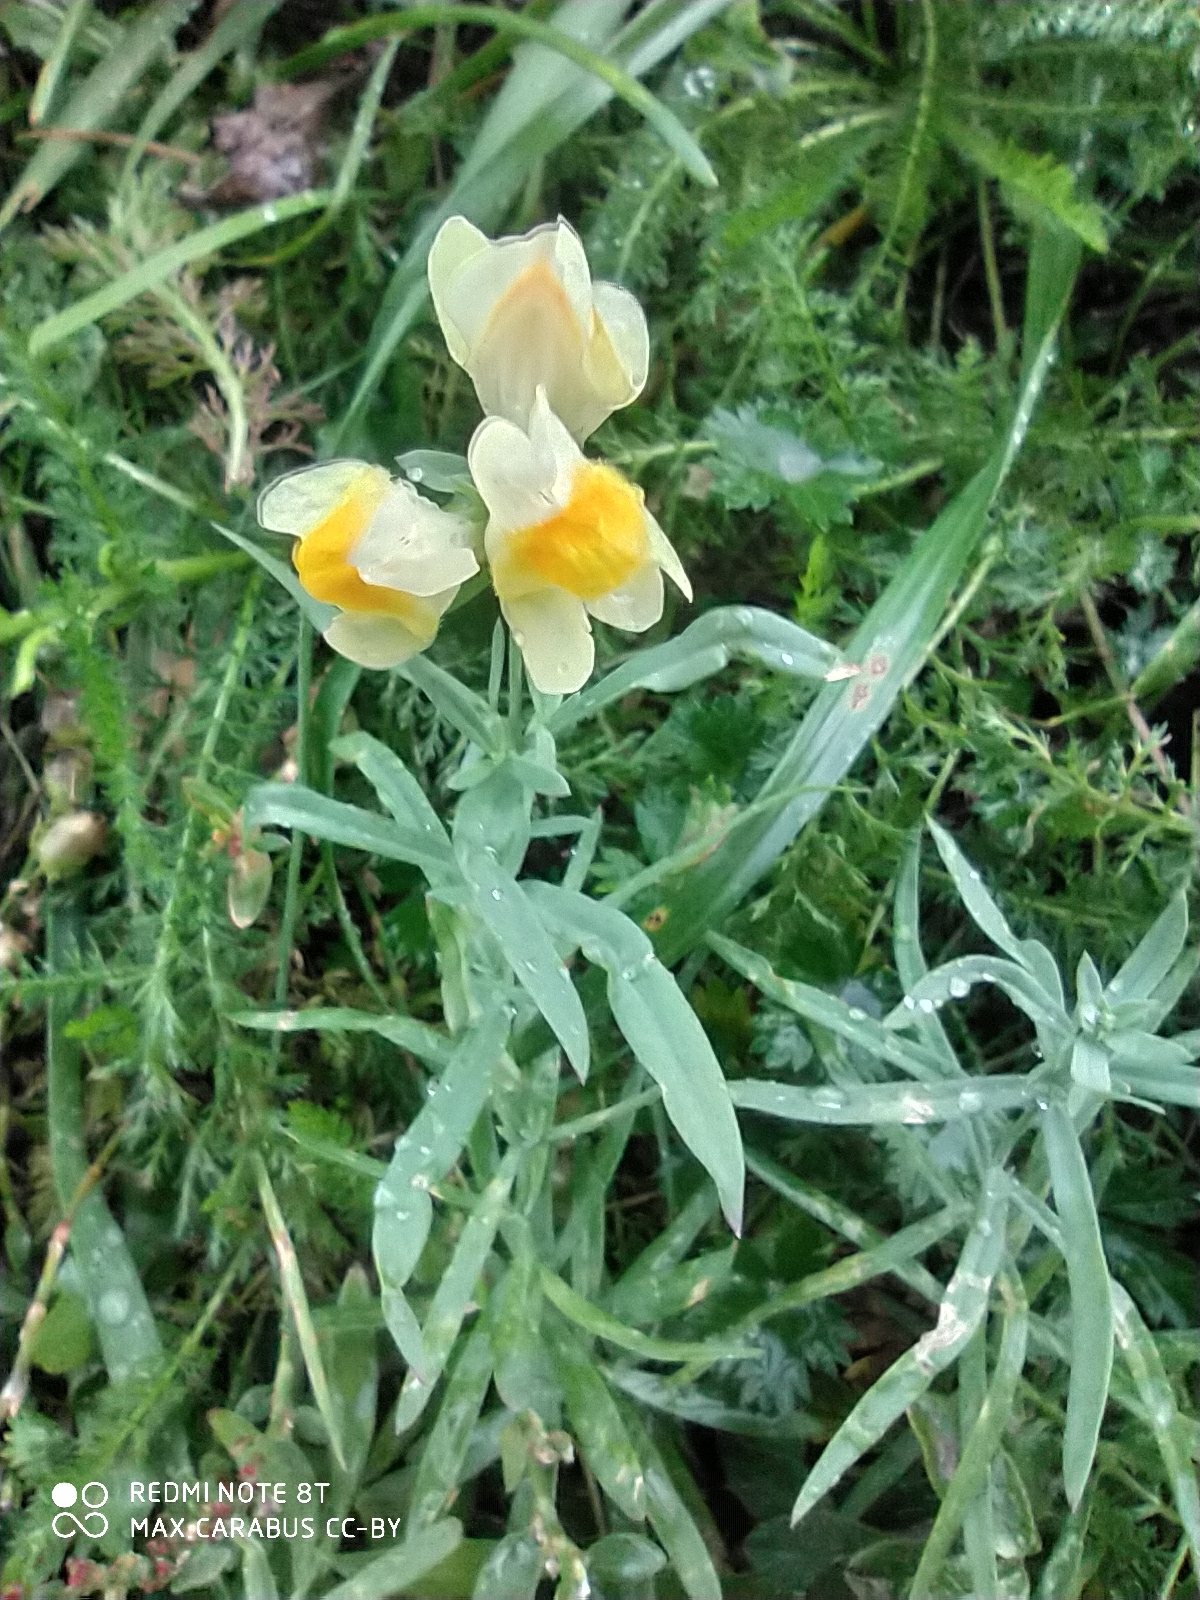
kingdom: Plantae
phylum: Tracheophyta
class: Magnoliopsida
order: Lamiales
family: Plantaginaceae
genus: Linaria
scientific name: Linaria vulgaris
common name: Butter and eggs
